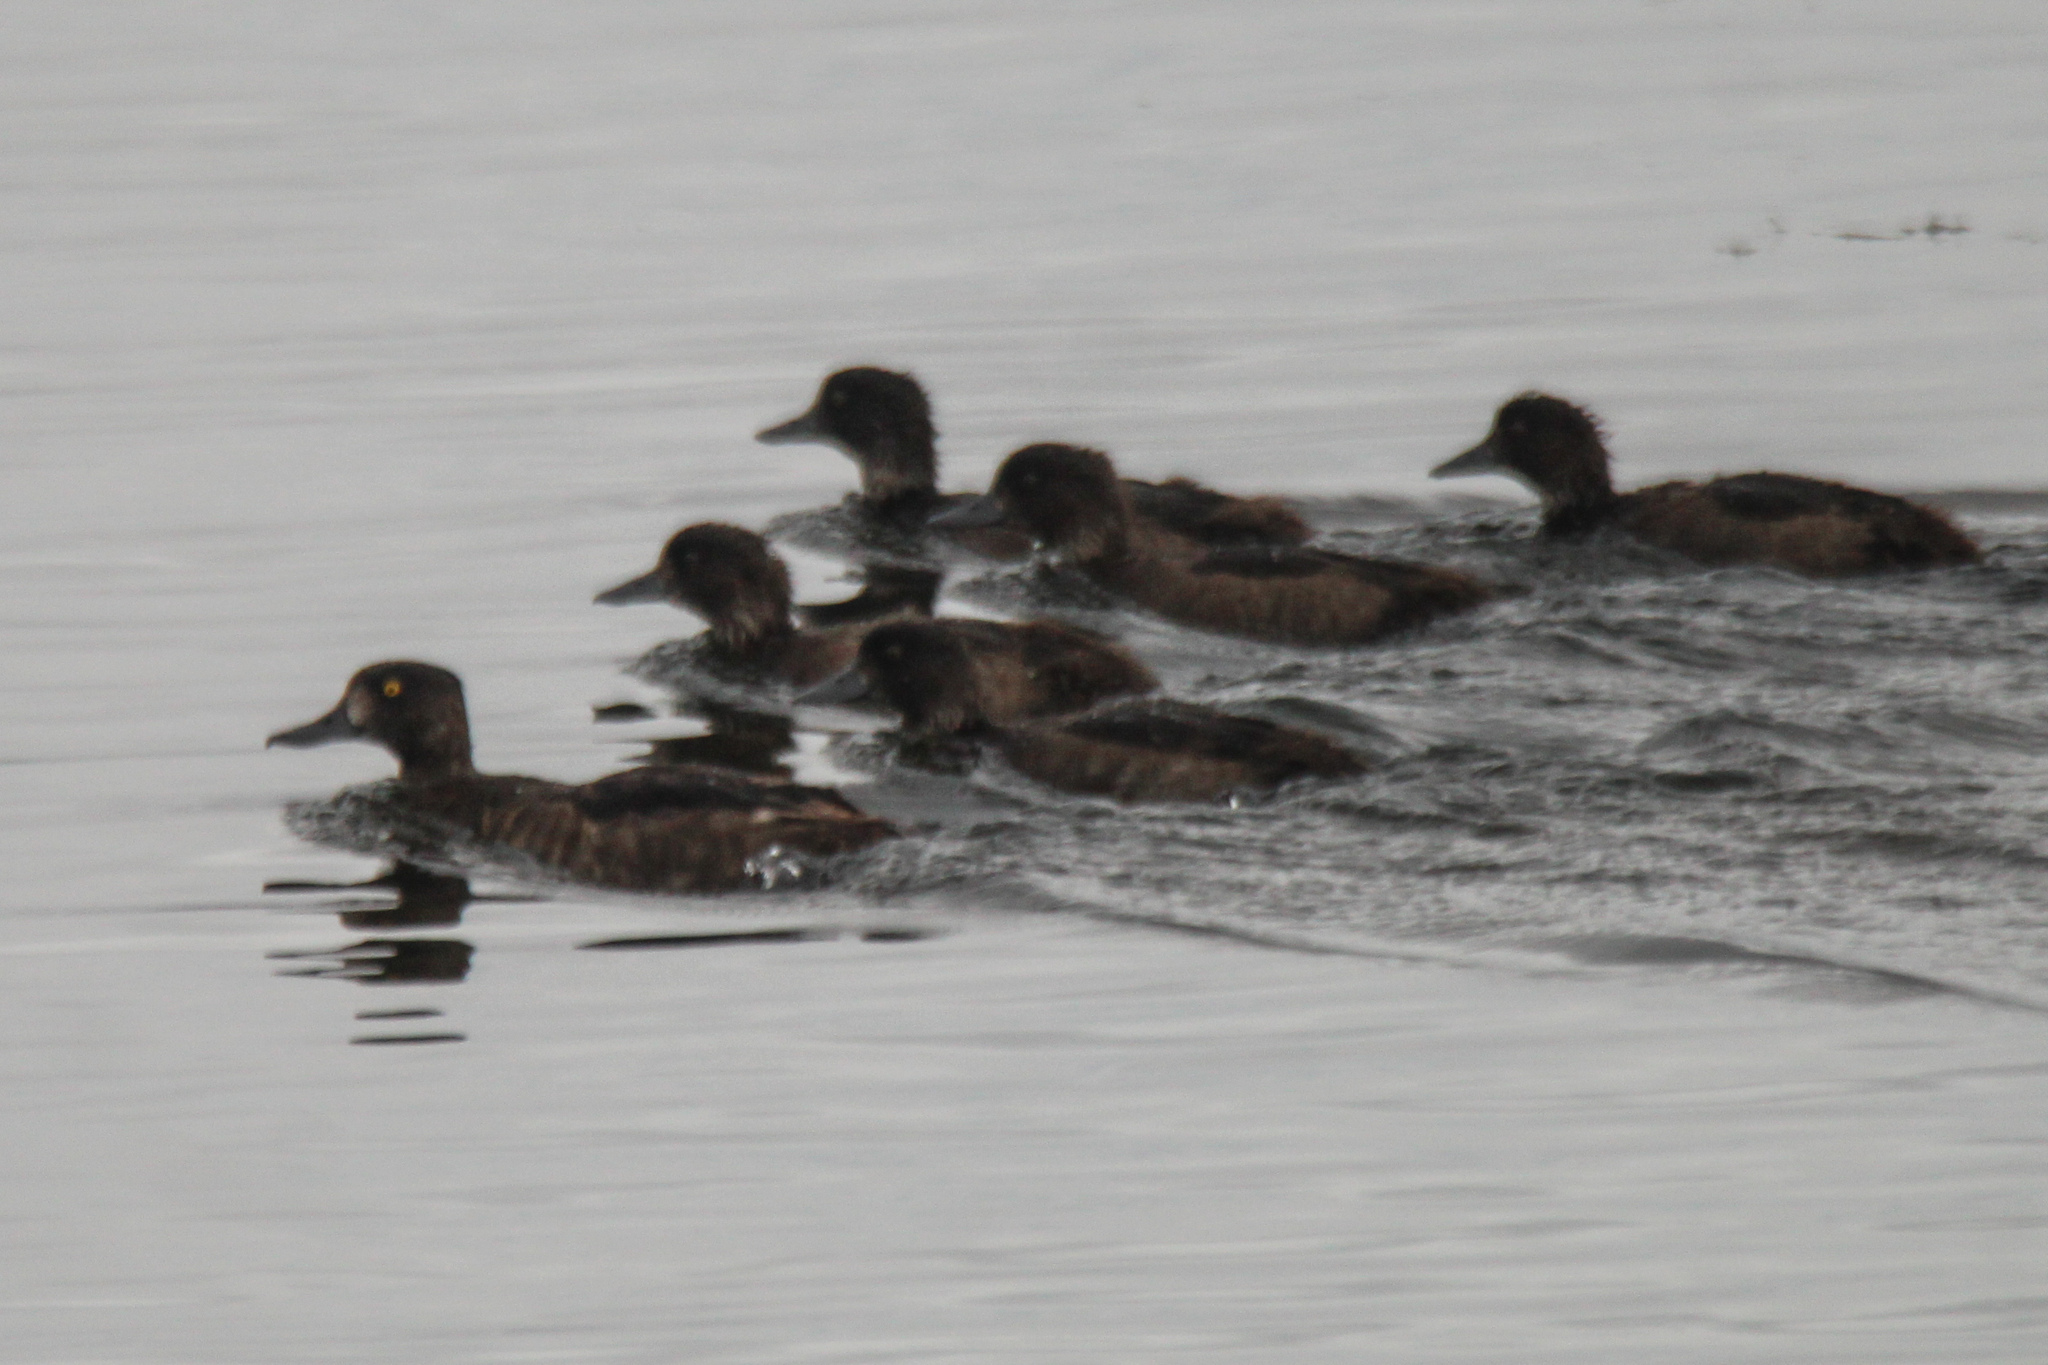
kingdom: Animalia
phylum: Chordata
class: Aves
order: Anseriformes
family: Anatidae
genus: Aythya
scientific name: Aythya fuligula
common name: Tufted duck
